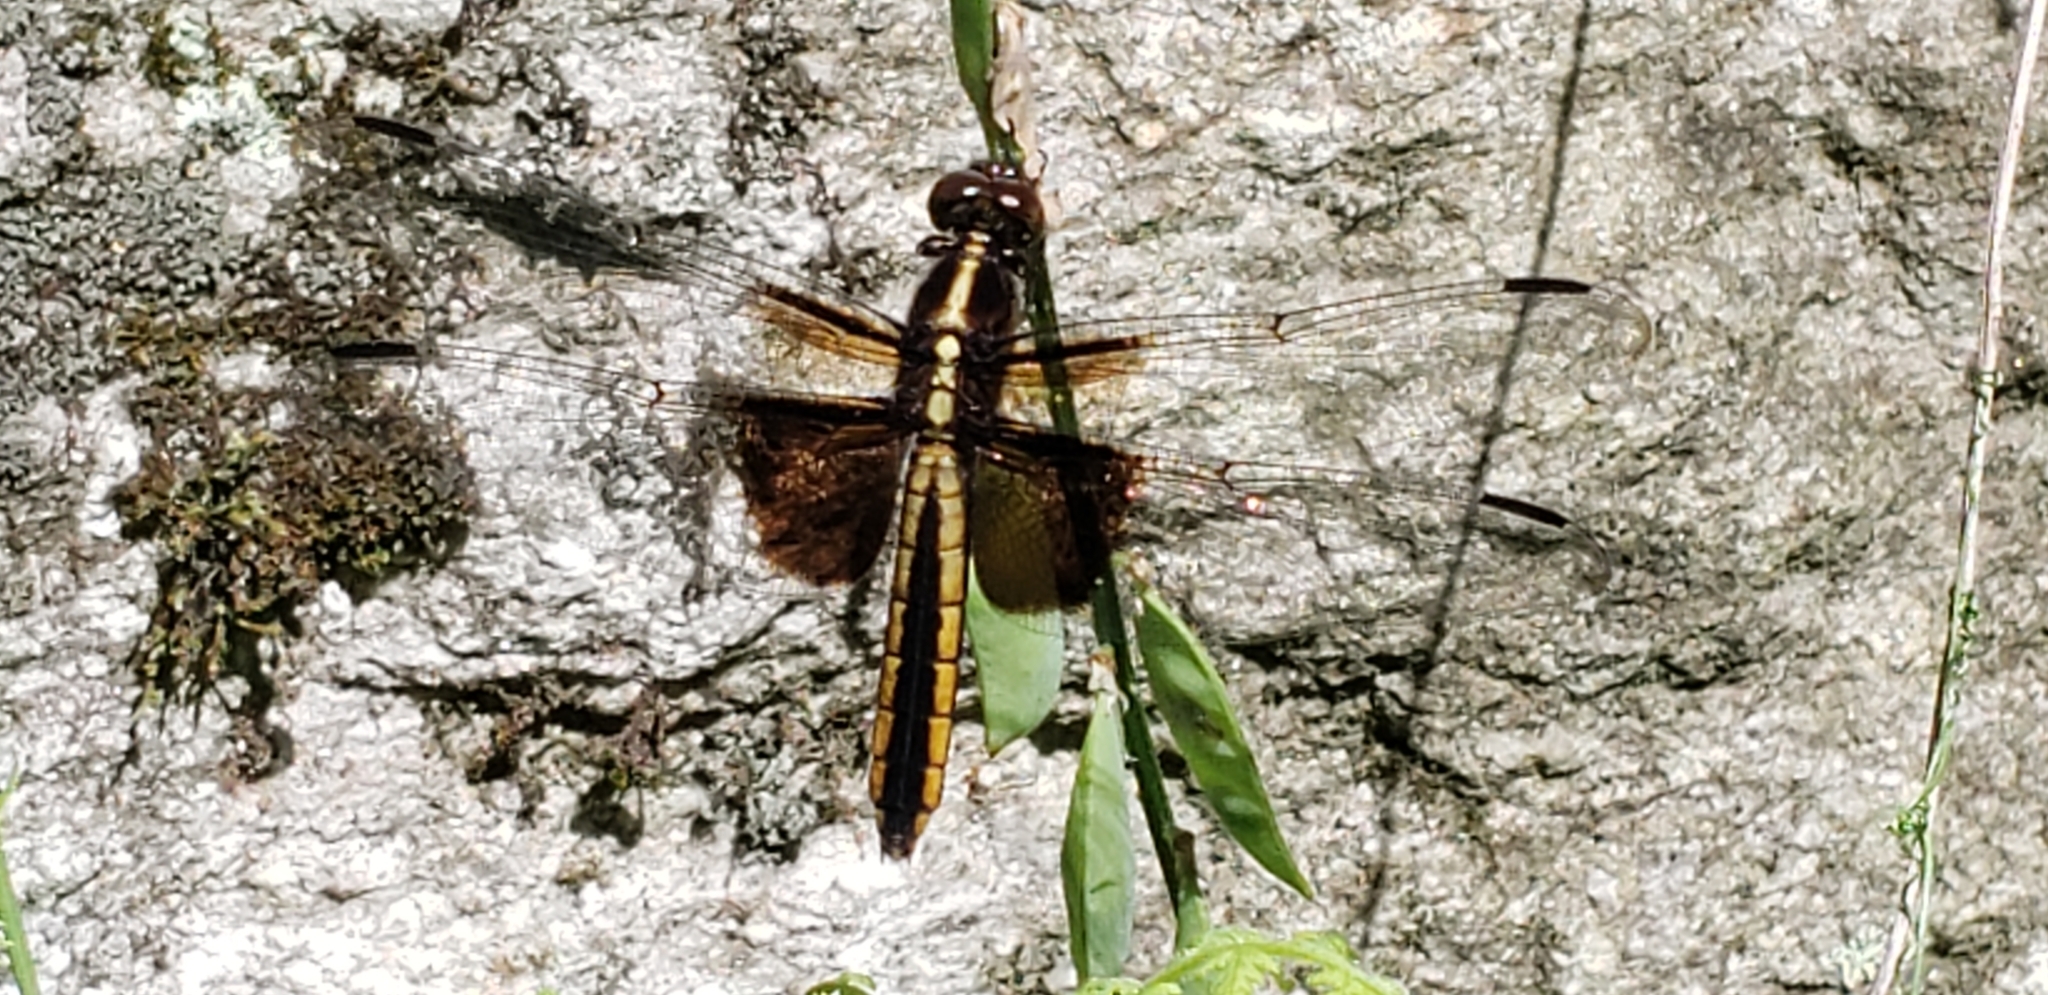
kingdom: Animalia
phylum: Arthropoda
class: Insecta
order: Odonata
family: Libellulidae
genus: Libellula
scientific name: Libellula luctuosa
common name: Widow skimmer
